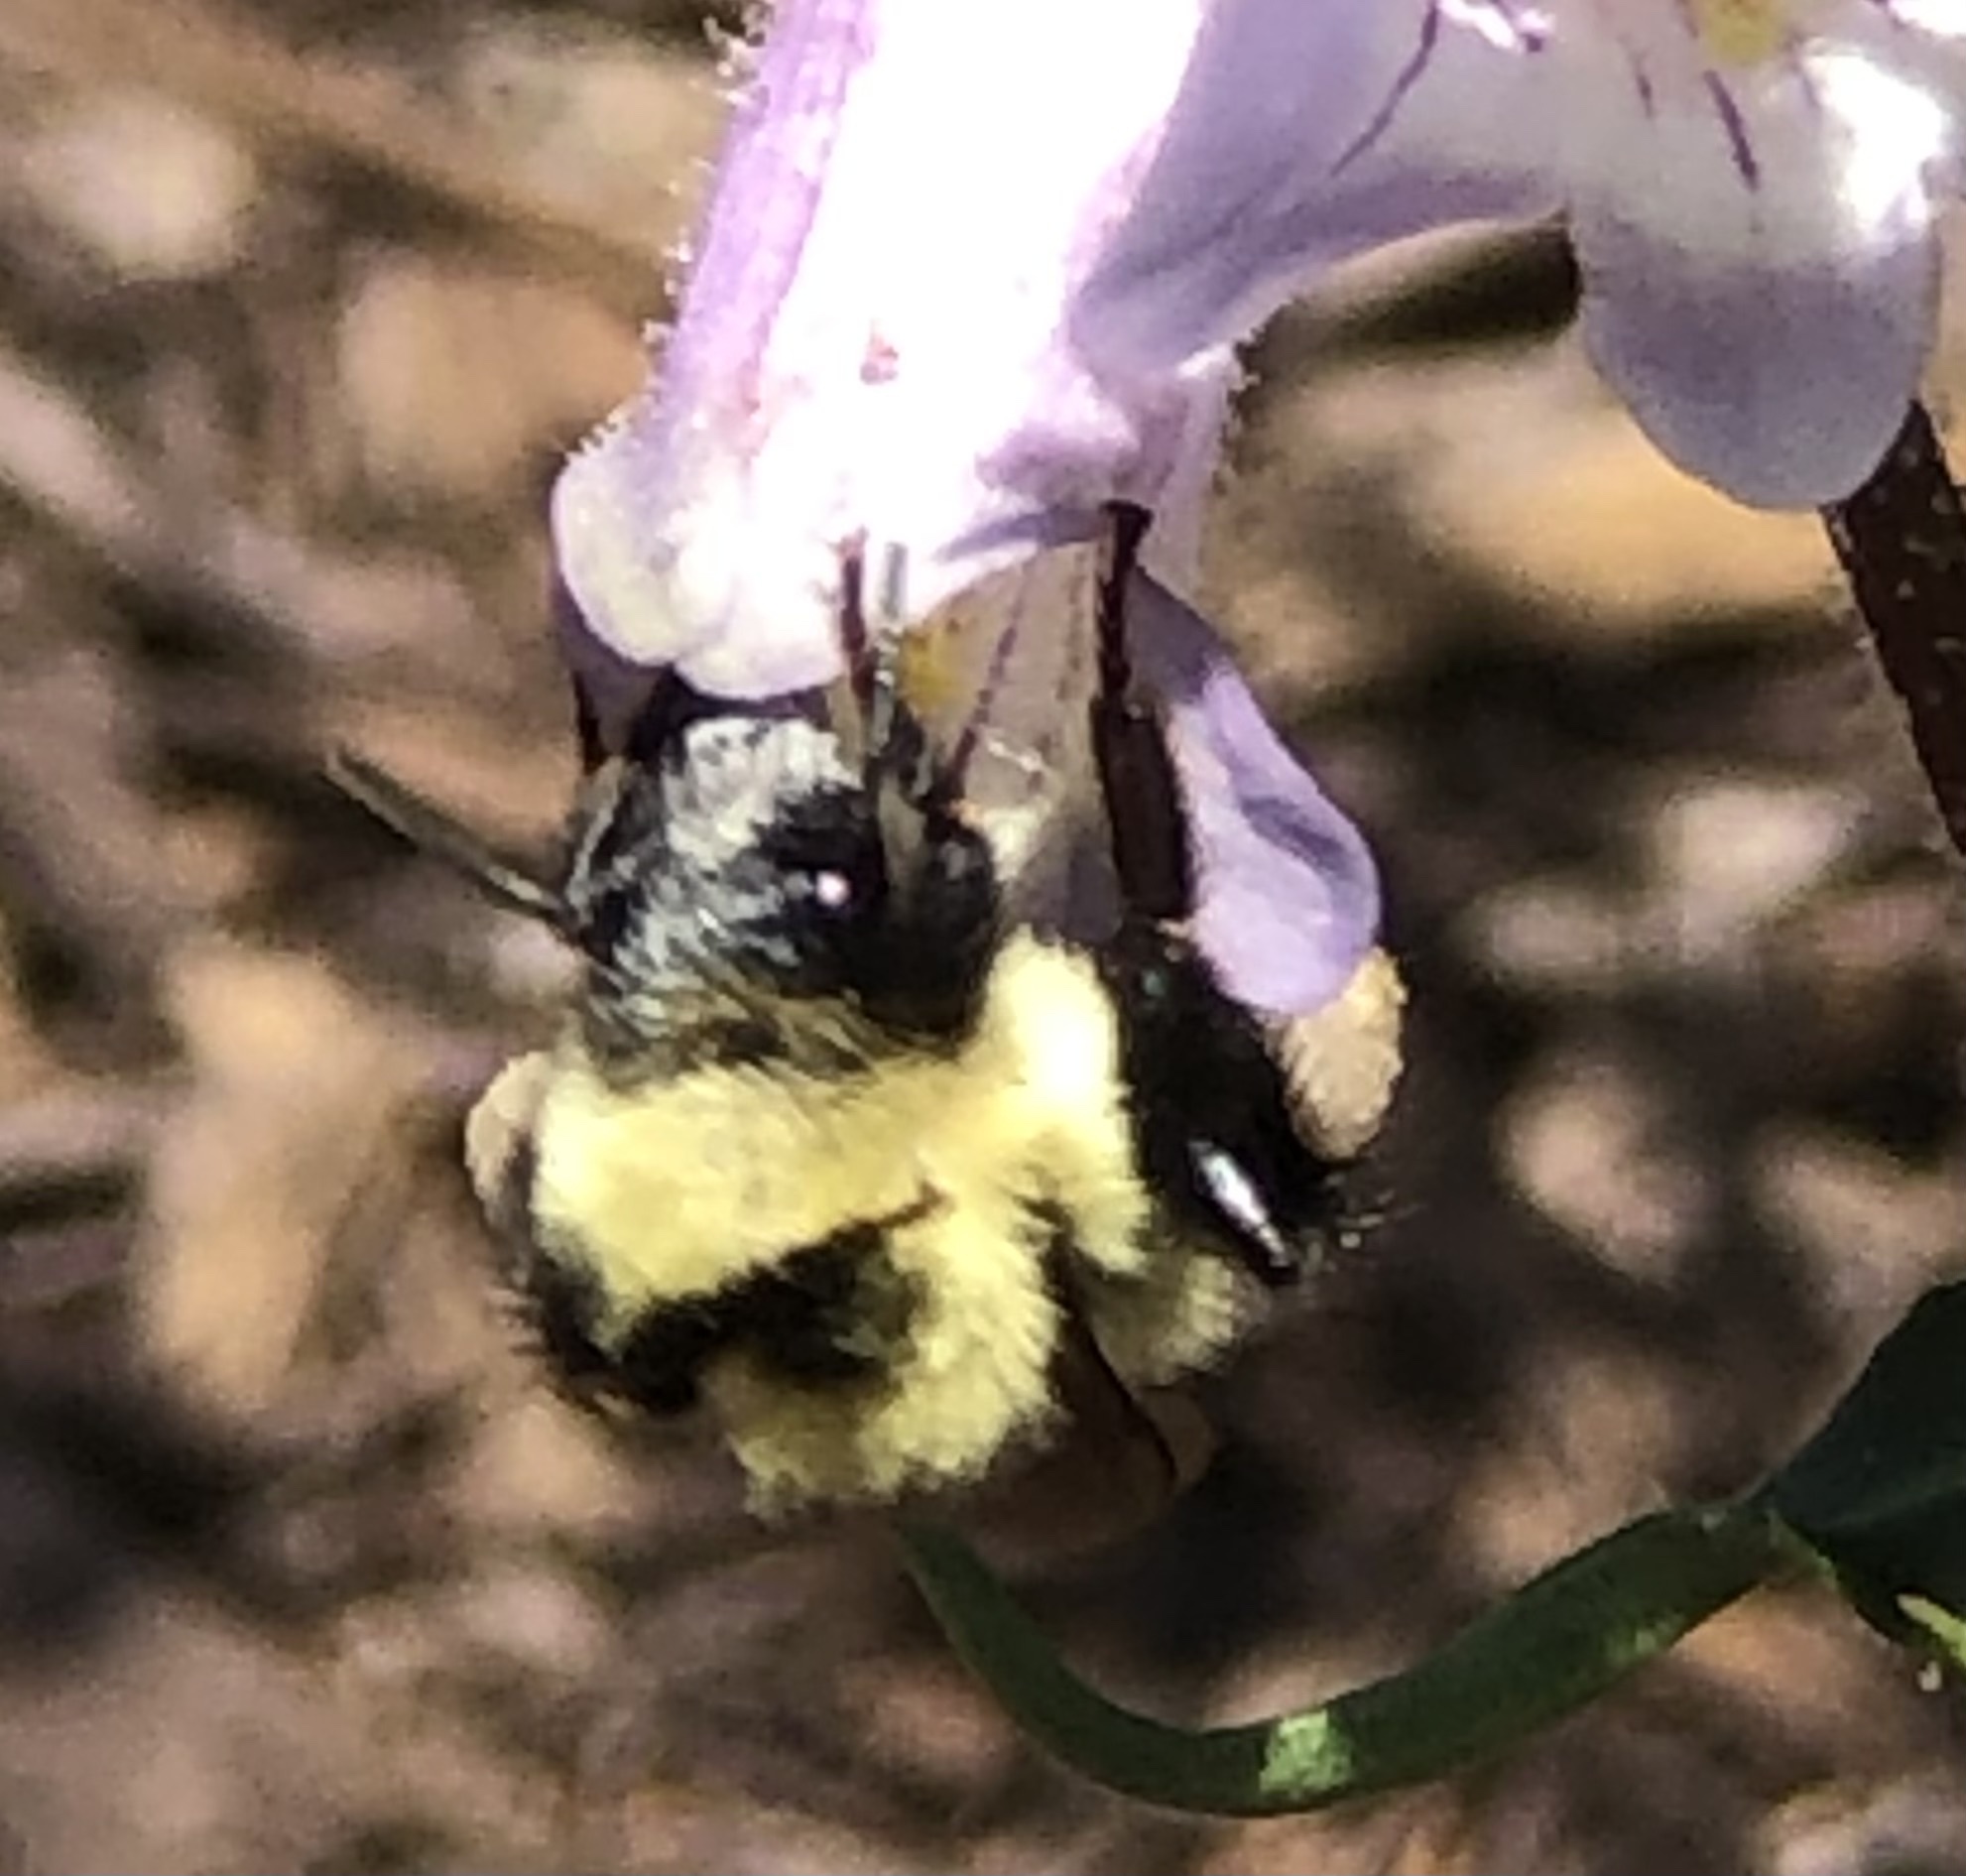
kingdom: Animalia
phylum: Arthropoda
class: Insecta
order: Hymenoptera
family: Apidae
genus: Bombus
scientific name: Bombus bimaculatus
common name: Two-spotted bumble bee
